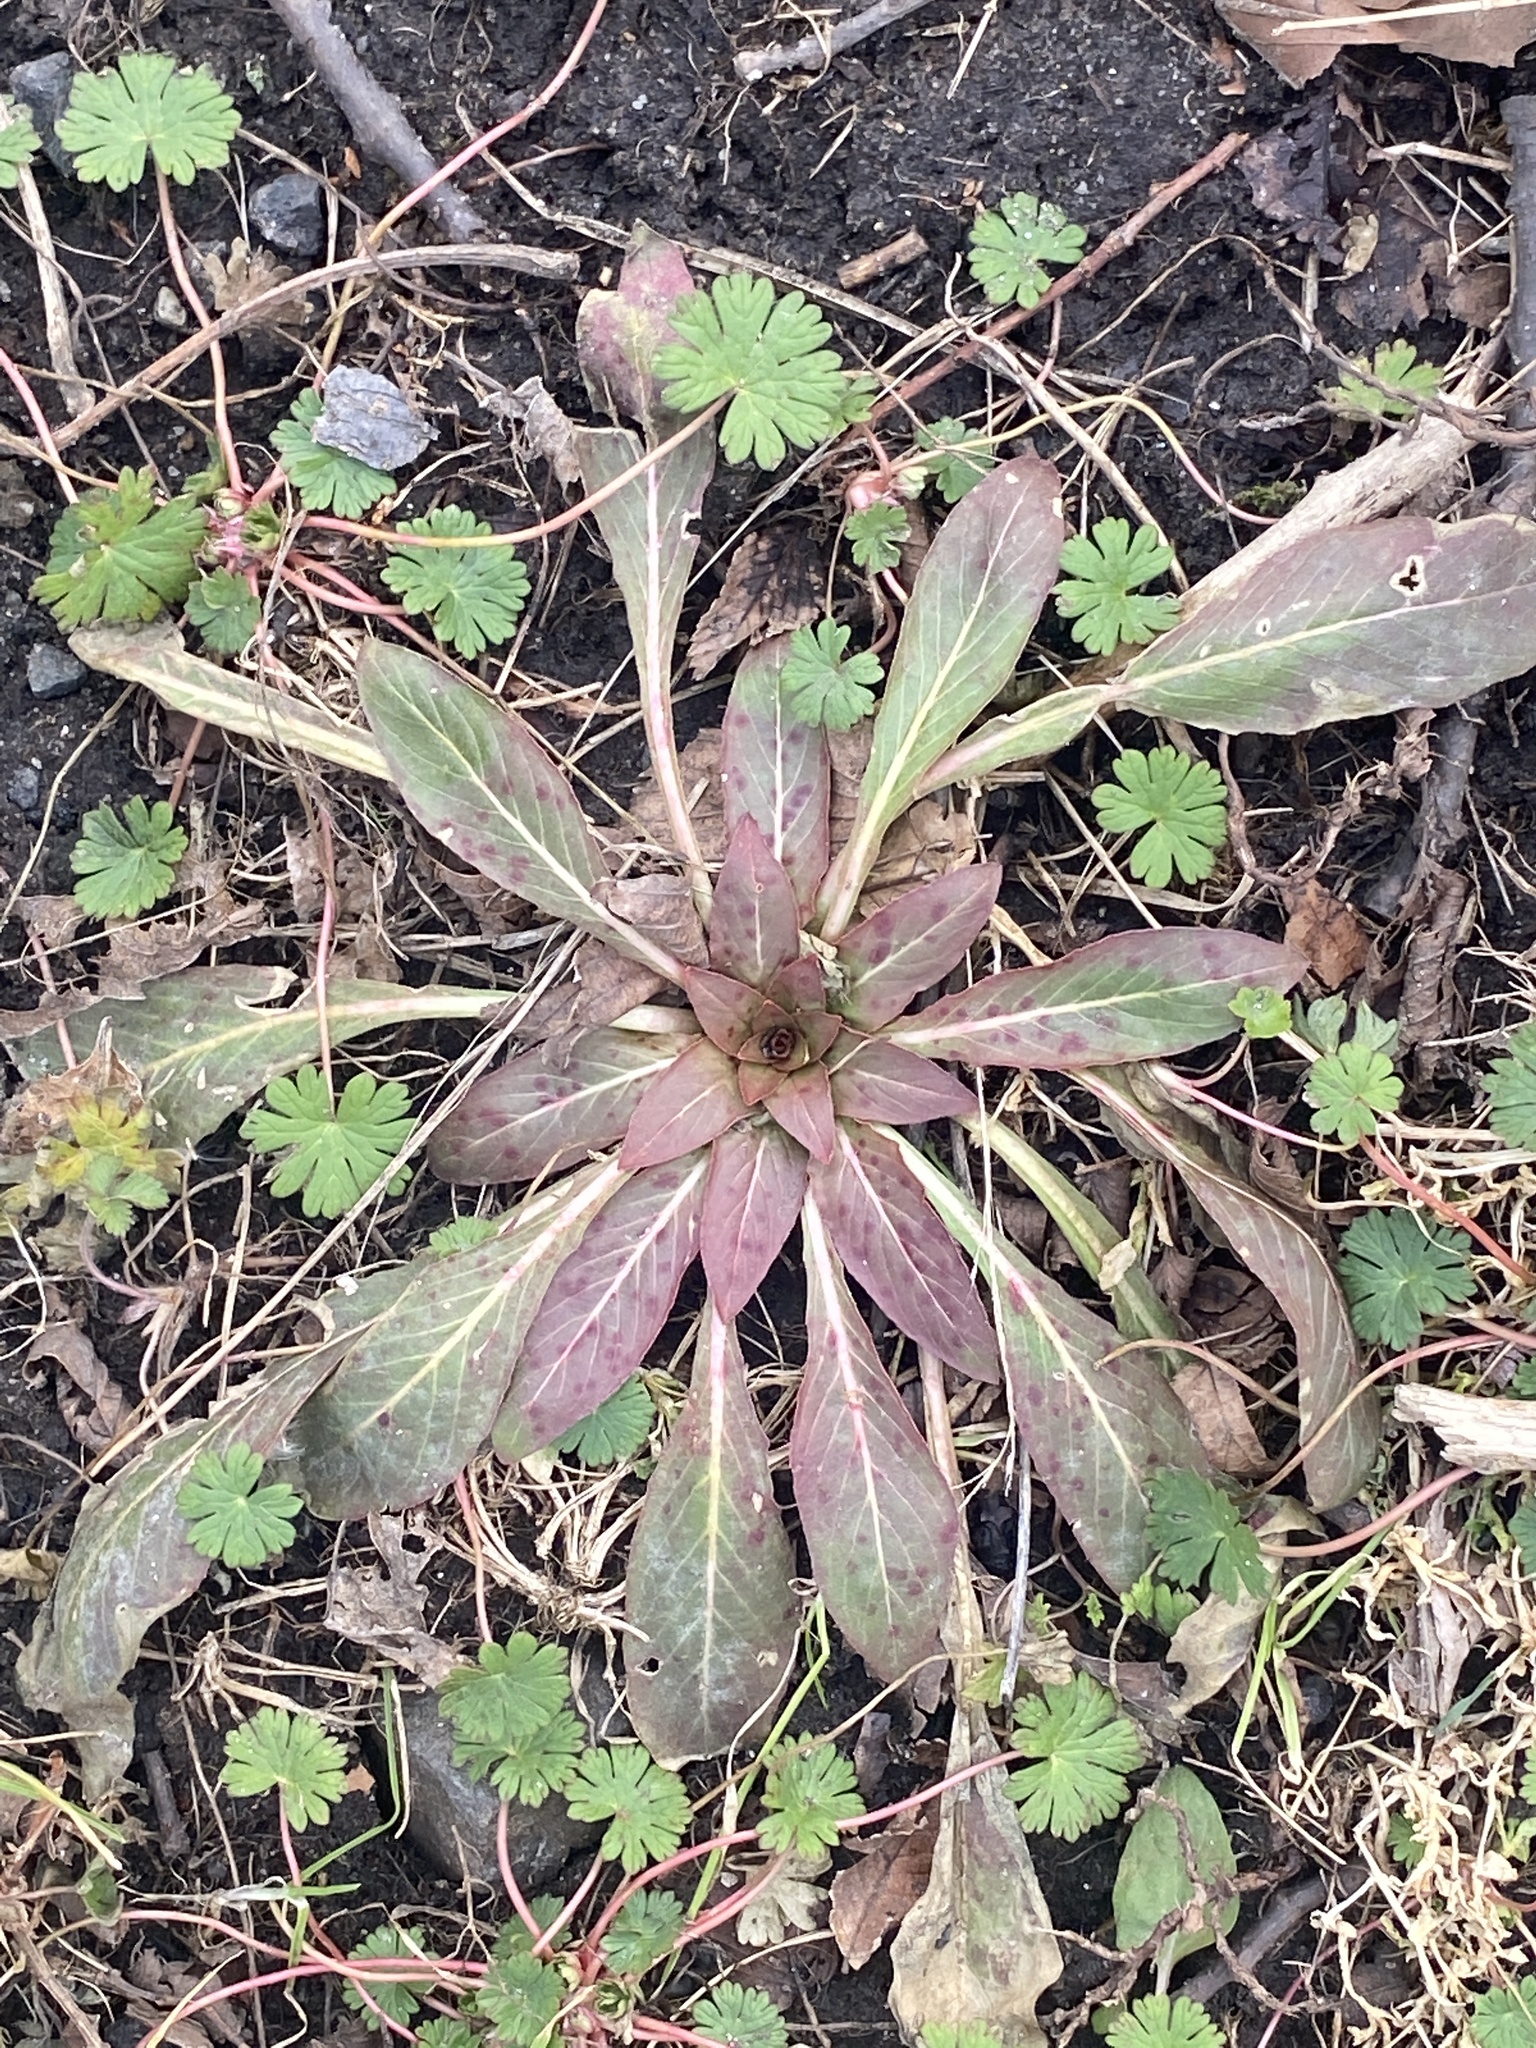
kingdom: Plantae
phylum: Tracheophyta
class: Magnoliopsida
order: Myrtales
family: Onagraceae
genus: Oenothera
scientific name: Oenothera biennis
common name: Common evening-primrose
